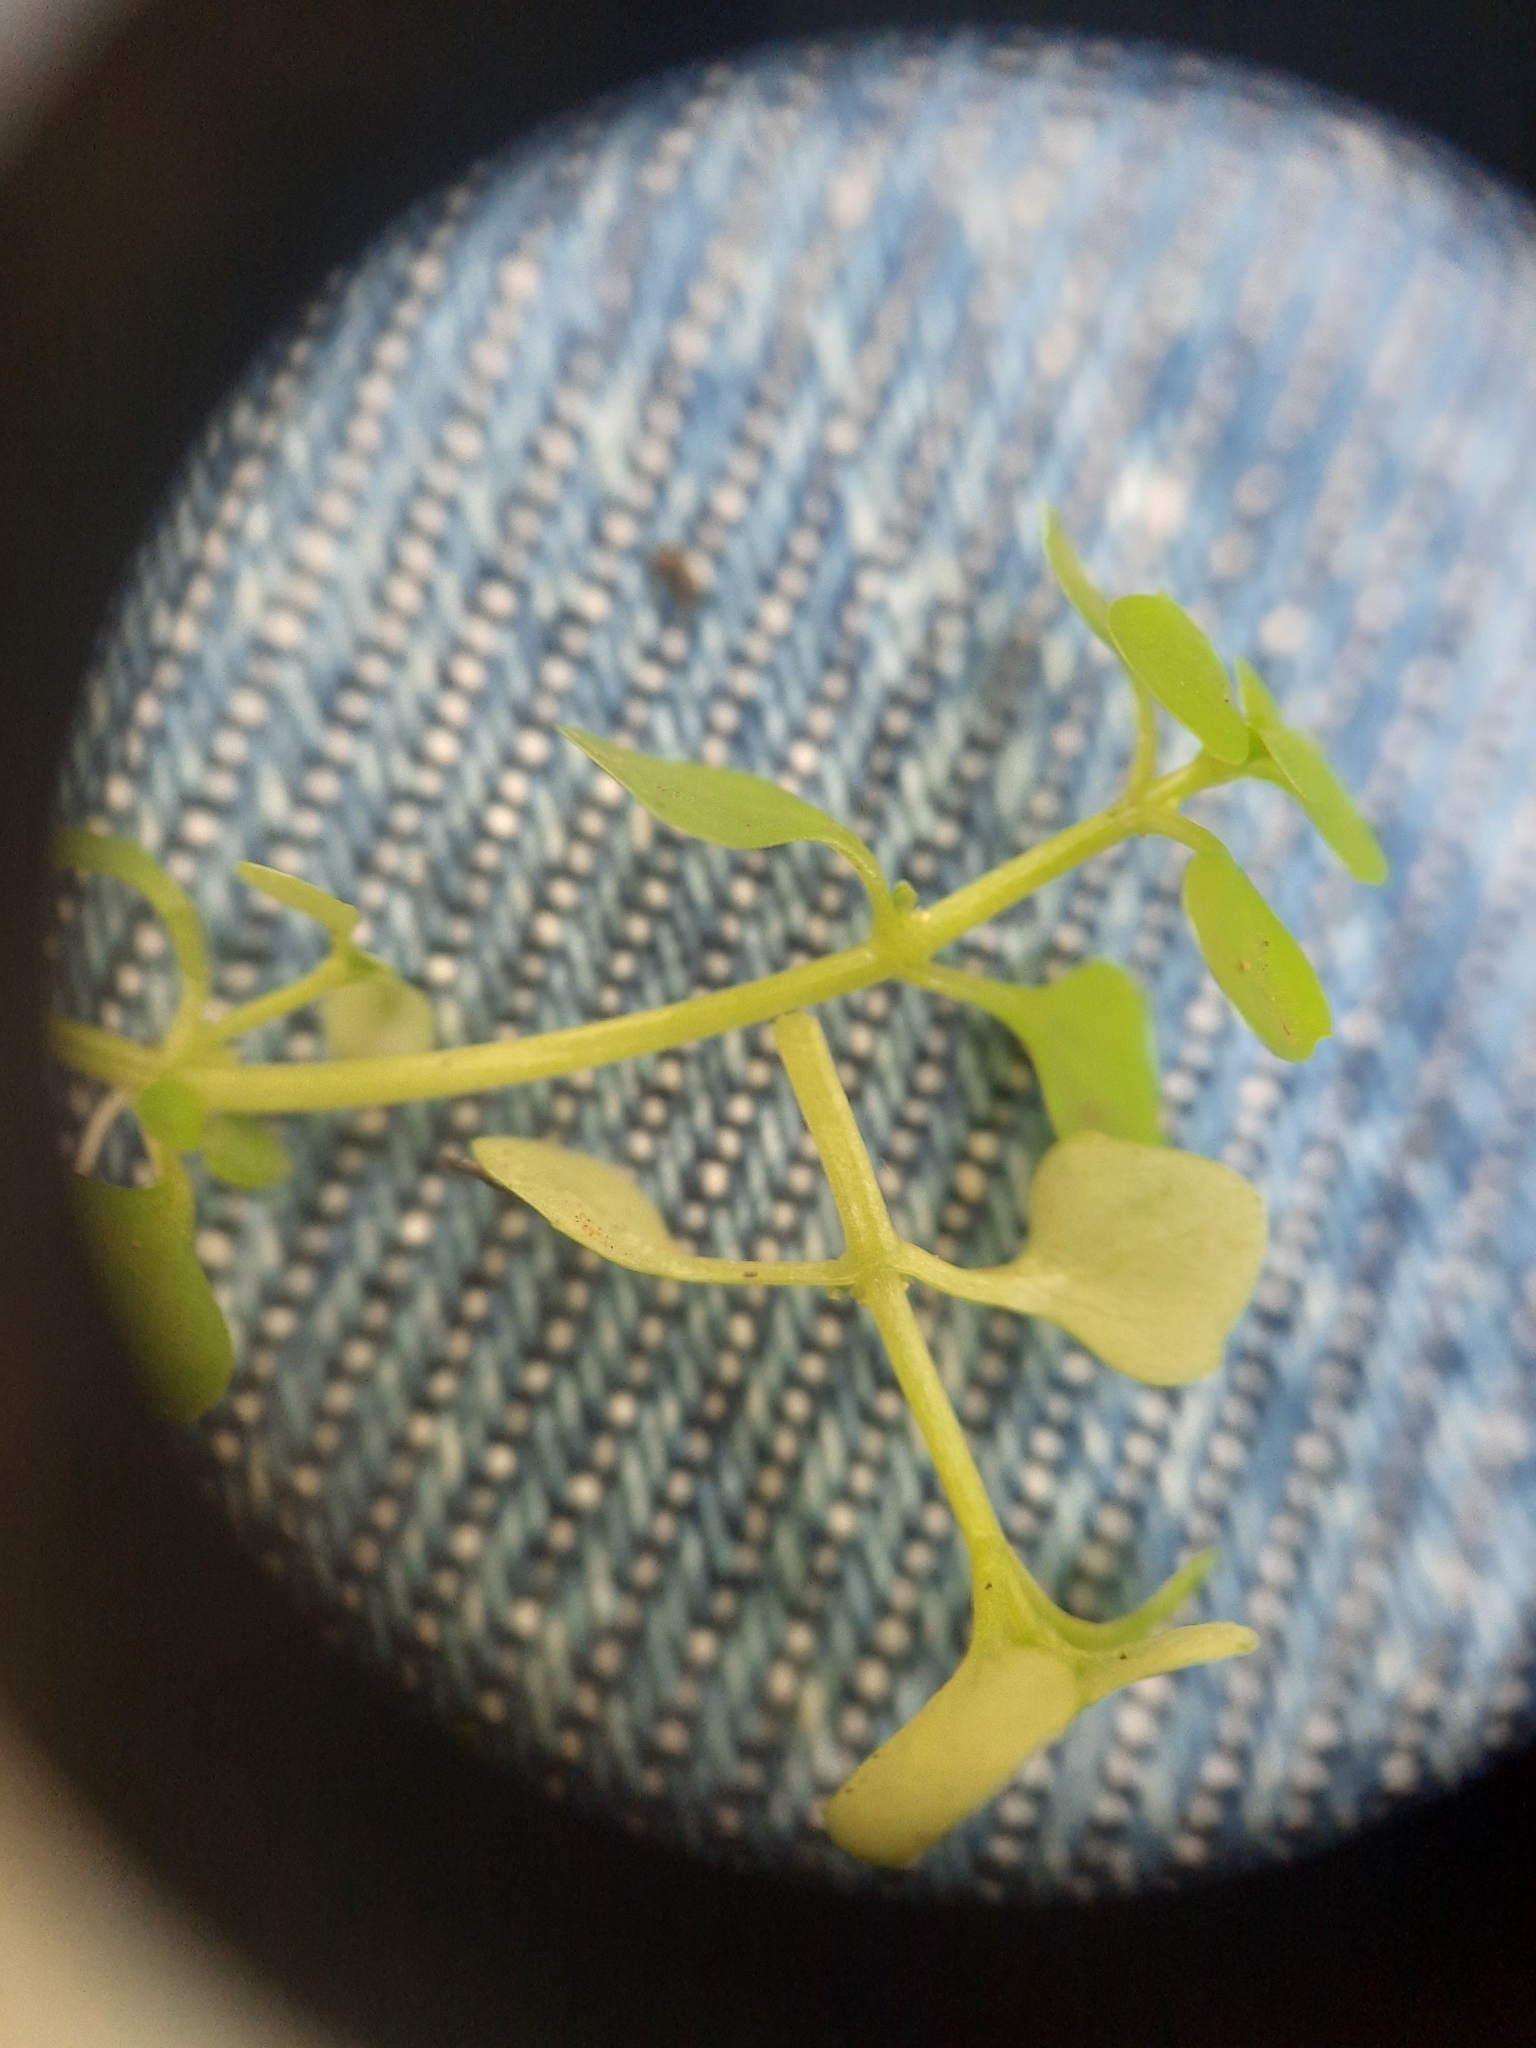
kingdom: Plantae
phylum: Tracheophyta
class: Magnoliopsida
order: Lamiales
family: Plantaginaceae
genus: Callitriche
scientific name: Callitriche muelleri
